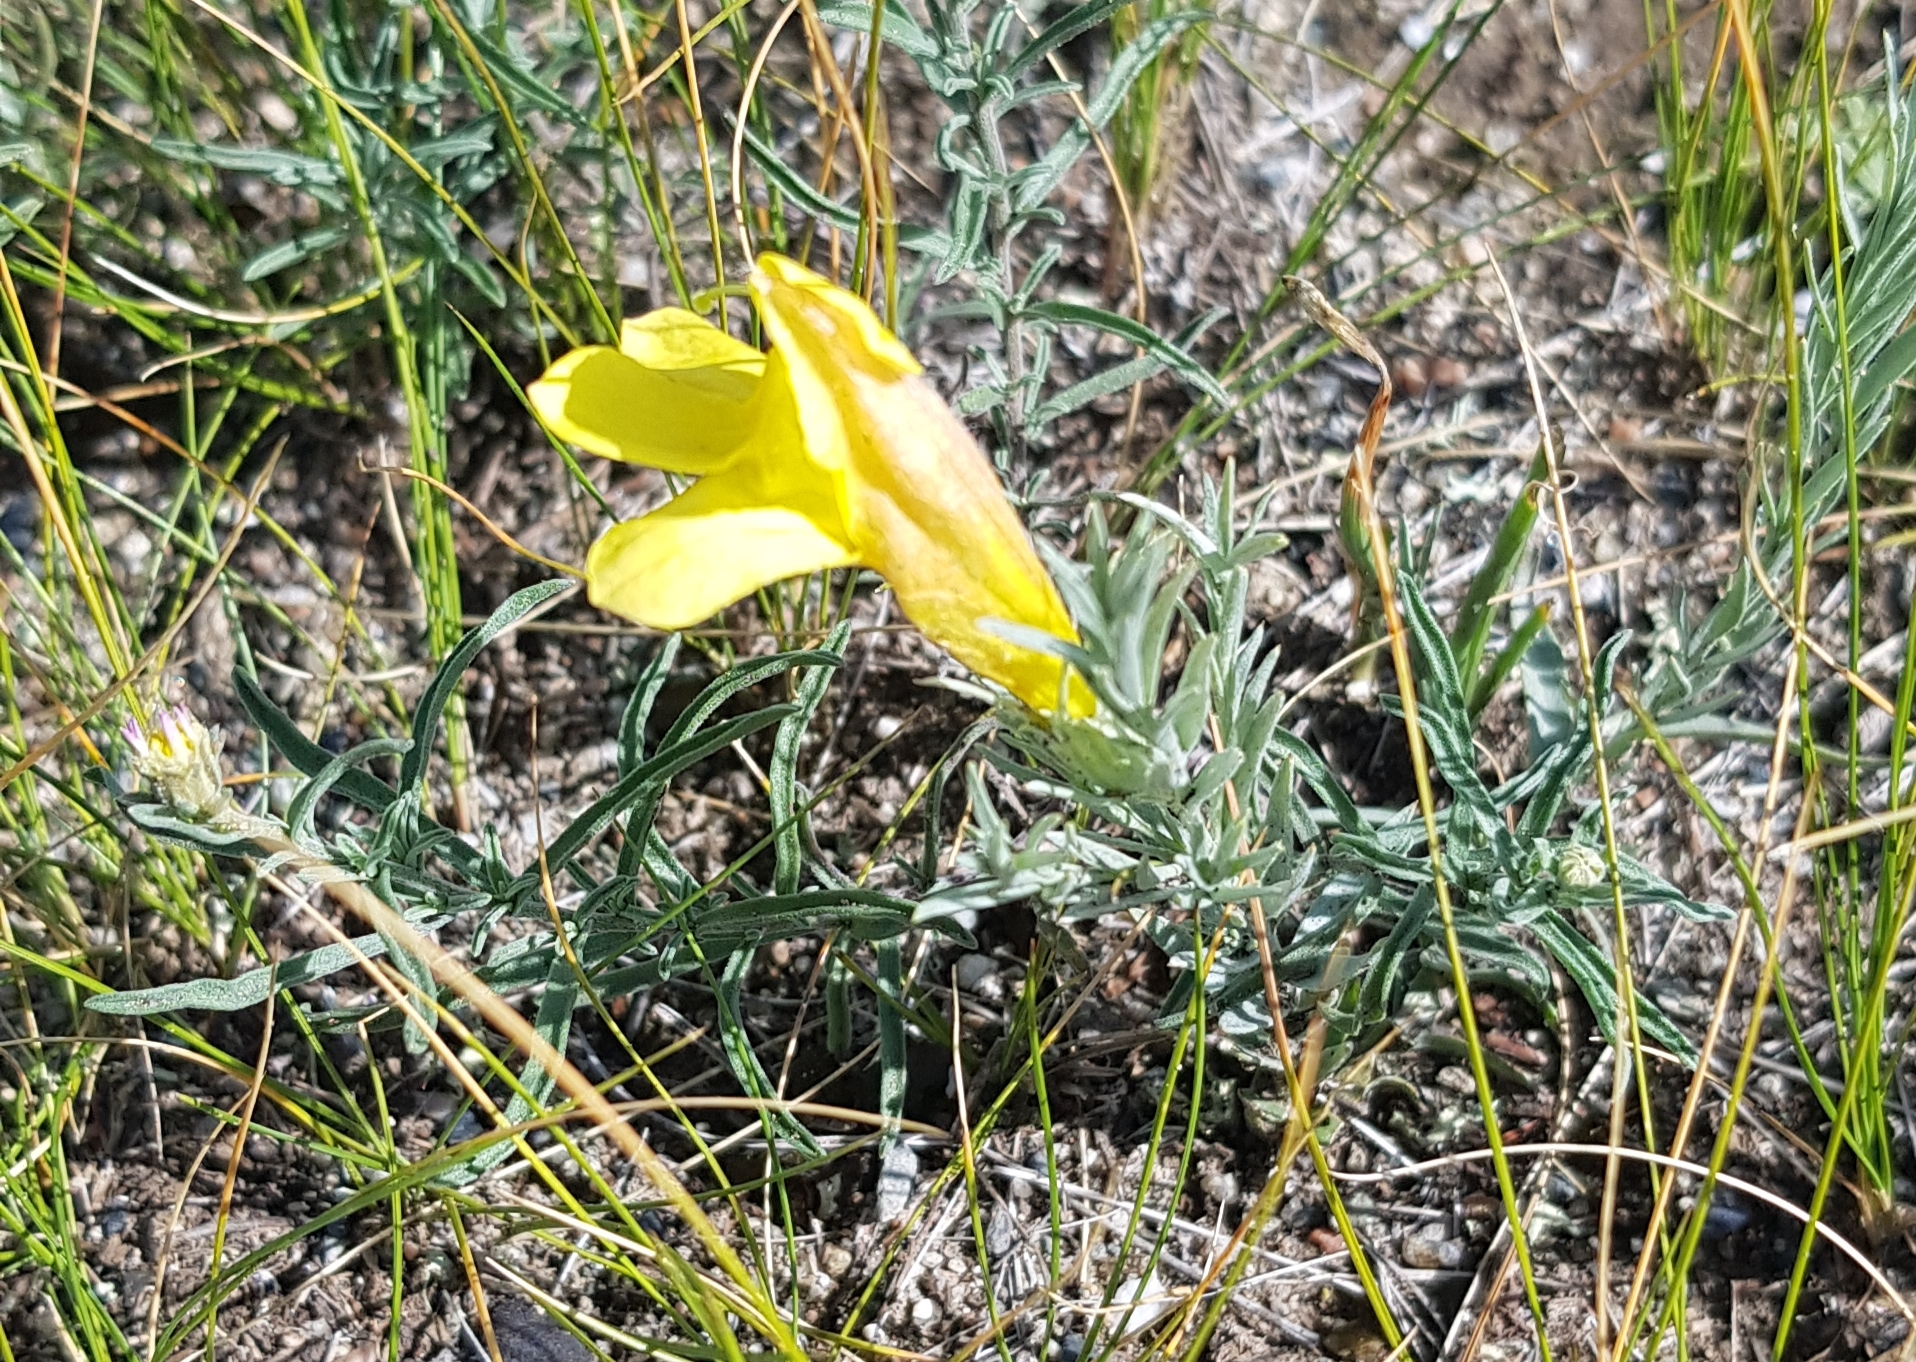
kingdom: Plantae
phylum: Tracheophyta
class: Magnoliopsida
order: Lamiales
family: Orobanchaceae
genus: Cymbaria
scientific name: Cymbaria daurica
